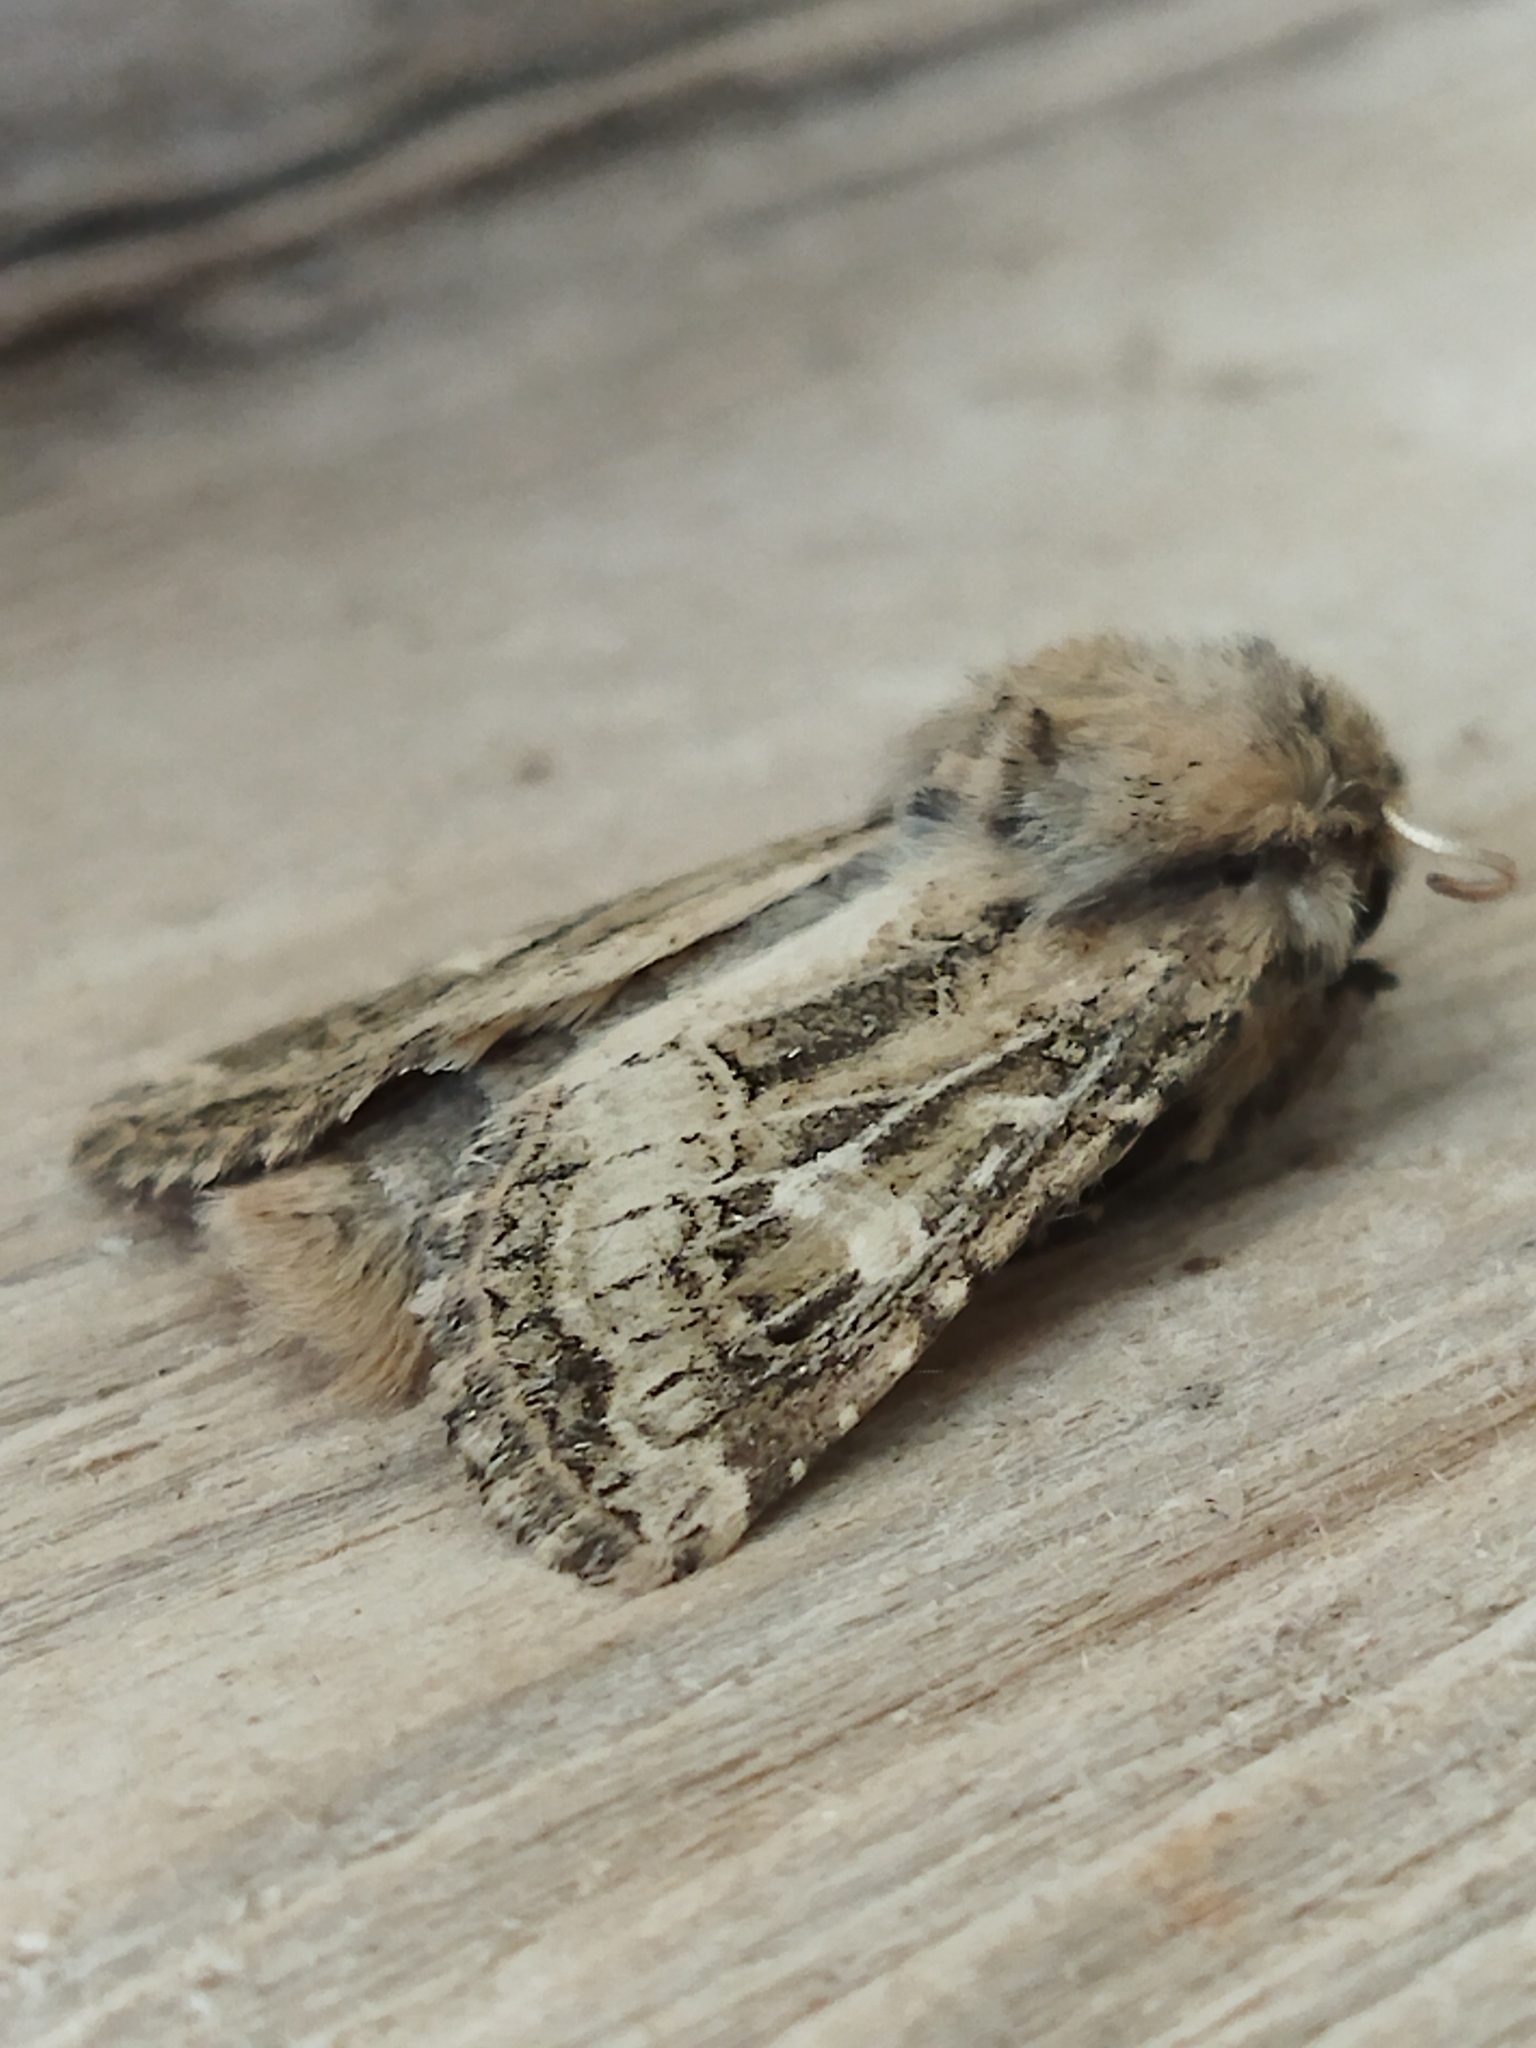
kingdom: Animalia
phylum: Arthropoda
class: Insecta
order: Lepidoptera
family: Noctuidae
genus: Luperina
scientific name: Luperina dumerilii
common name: Dumeril's rustic
